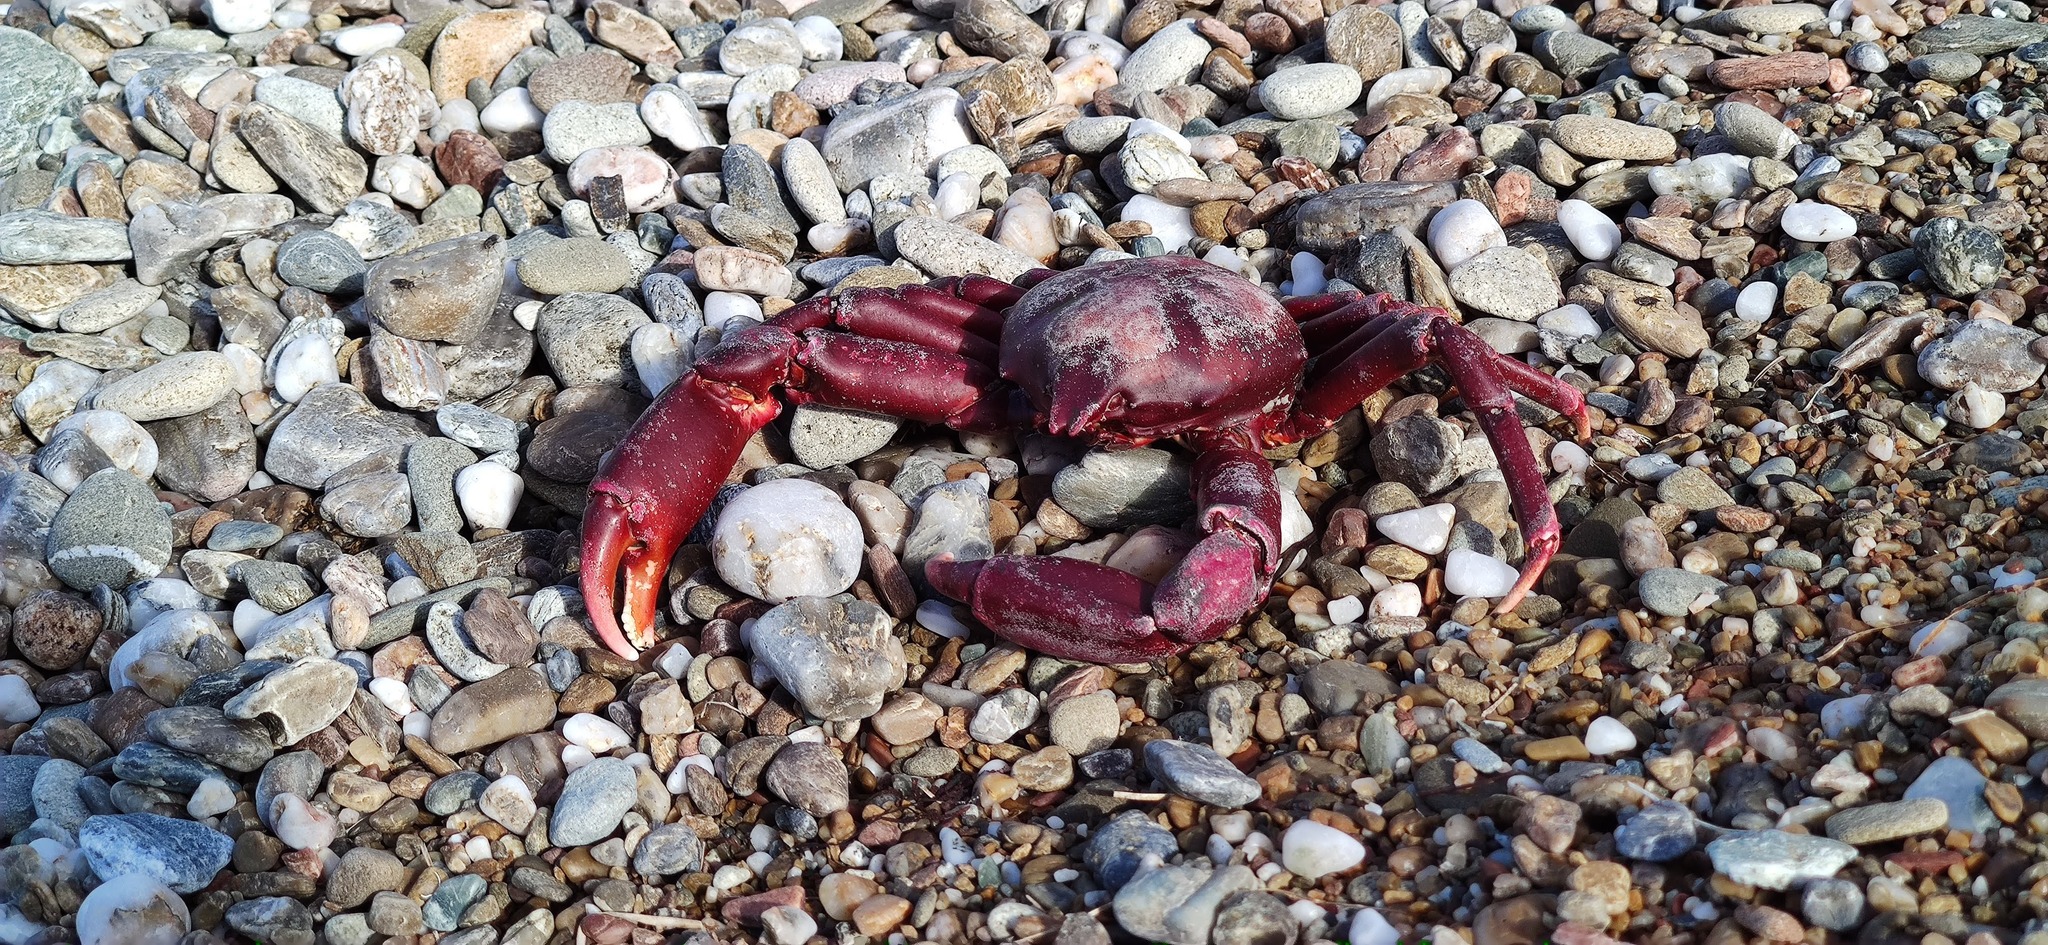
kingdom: Animalia
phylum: Arthropoda
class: Malacostraca
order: Decapoda
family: Epialtidae
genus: Taliepus
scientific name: Taliepus nuttallii
